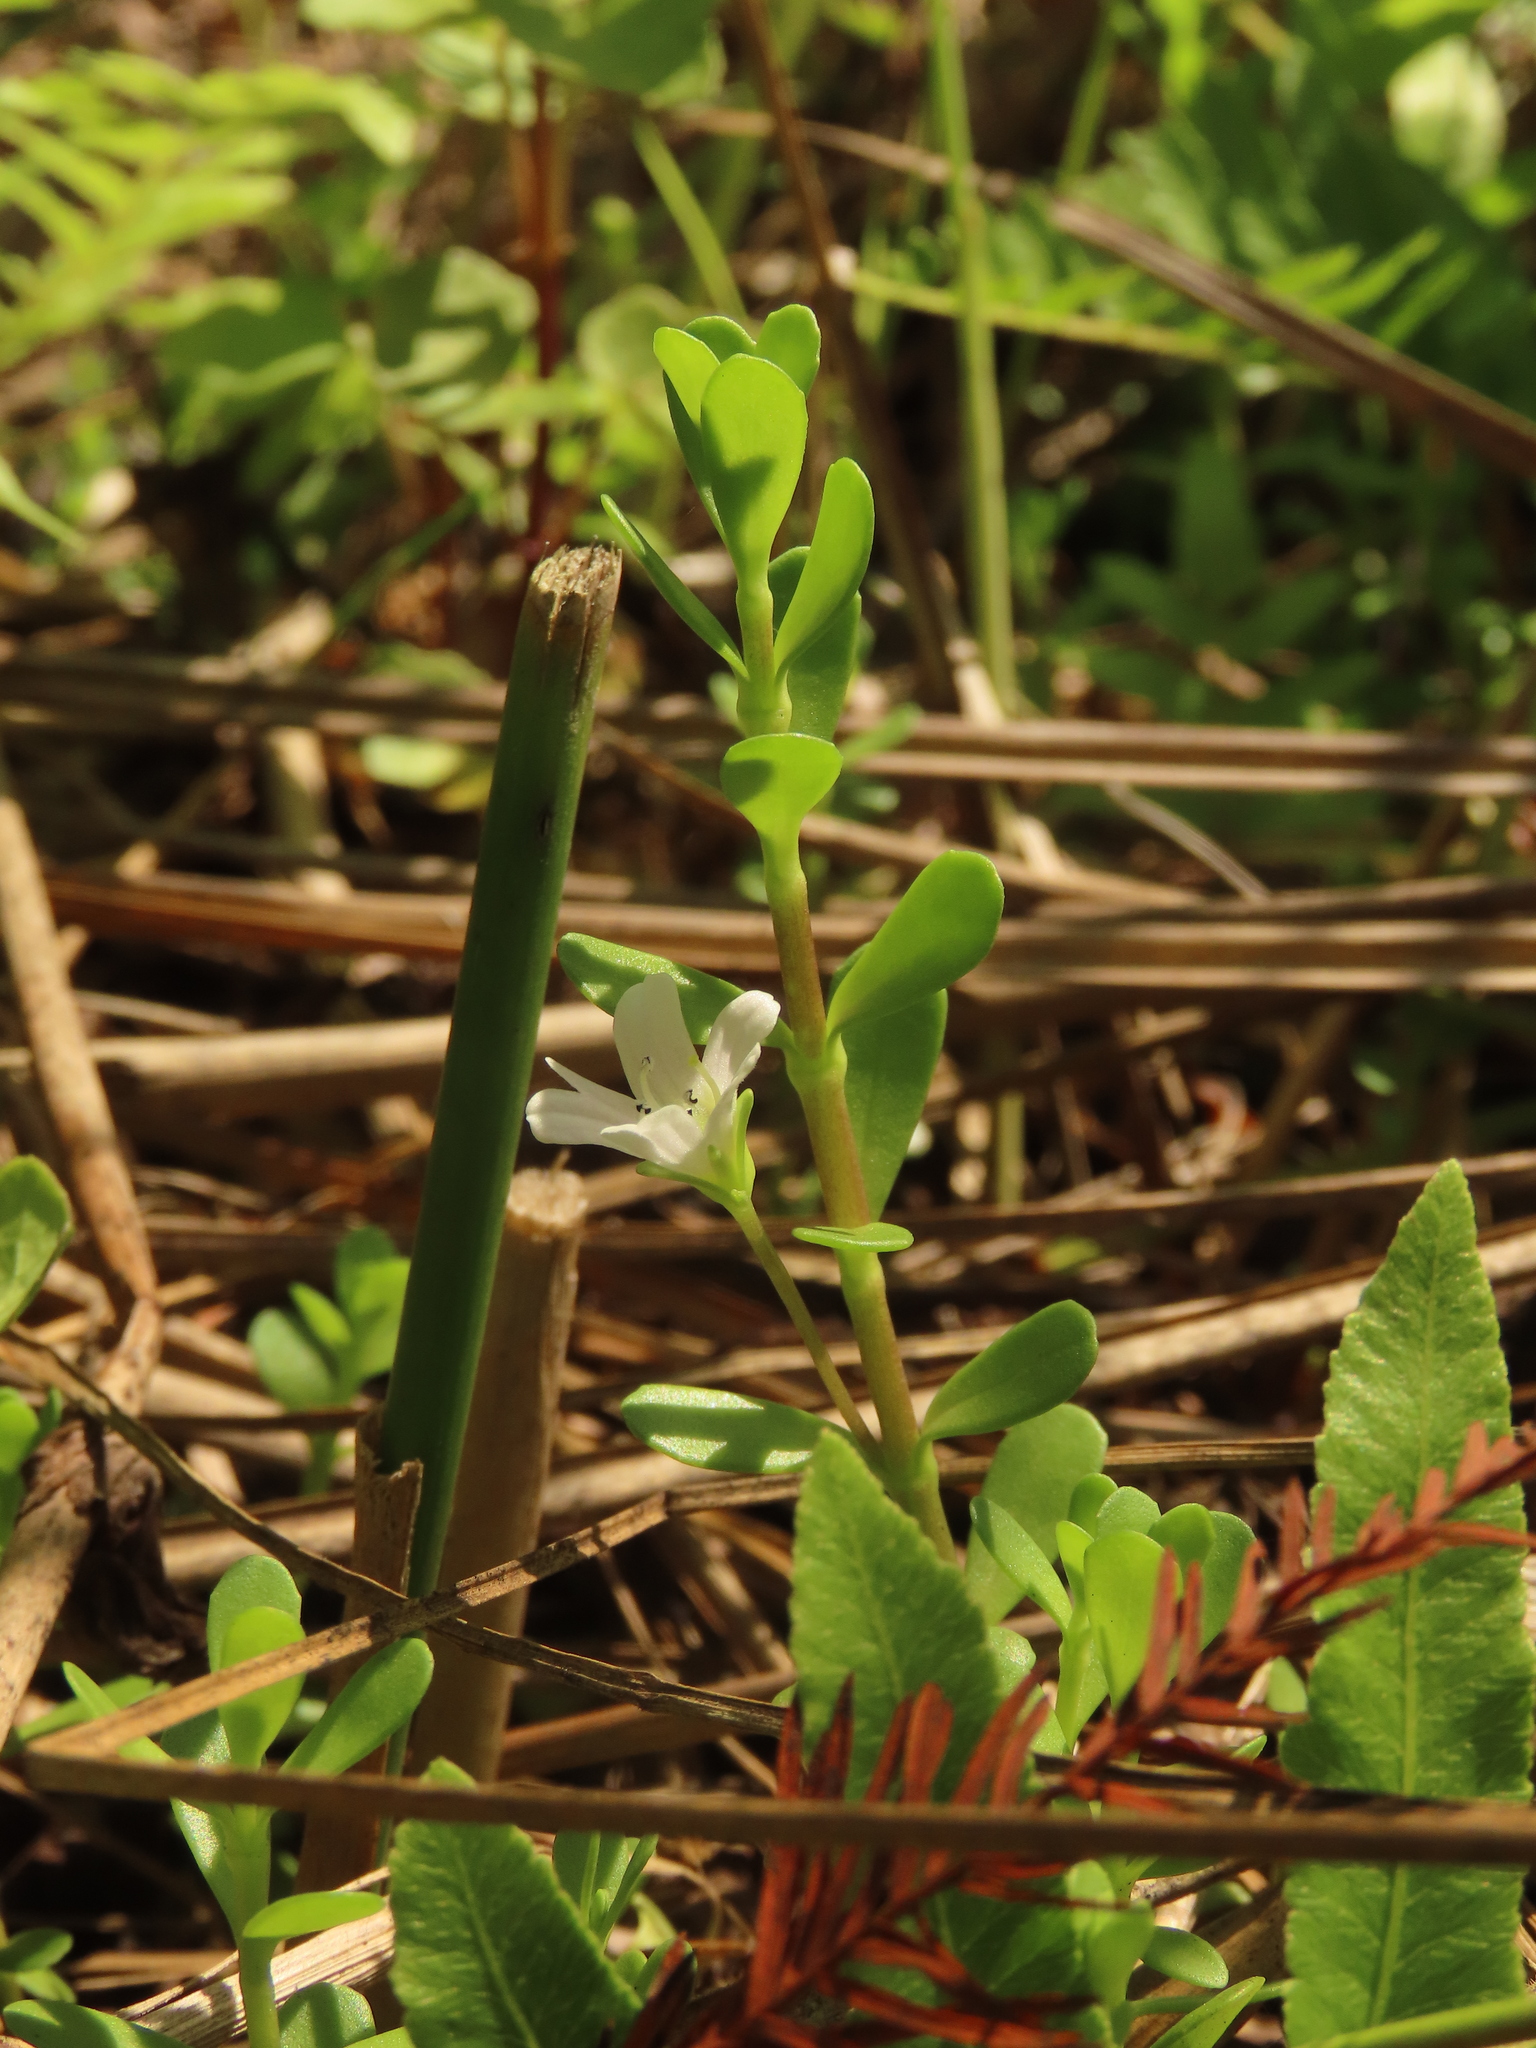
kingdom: Plantae
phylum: Tracheophyta
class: Magnoliopsida
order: Lamiales
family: Plantaginaceae
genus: Bacopa
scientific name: Bacopa monnieri
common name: Indian-pennywort
